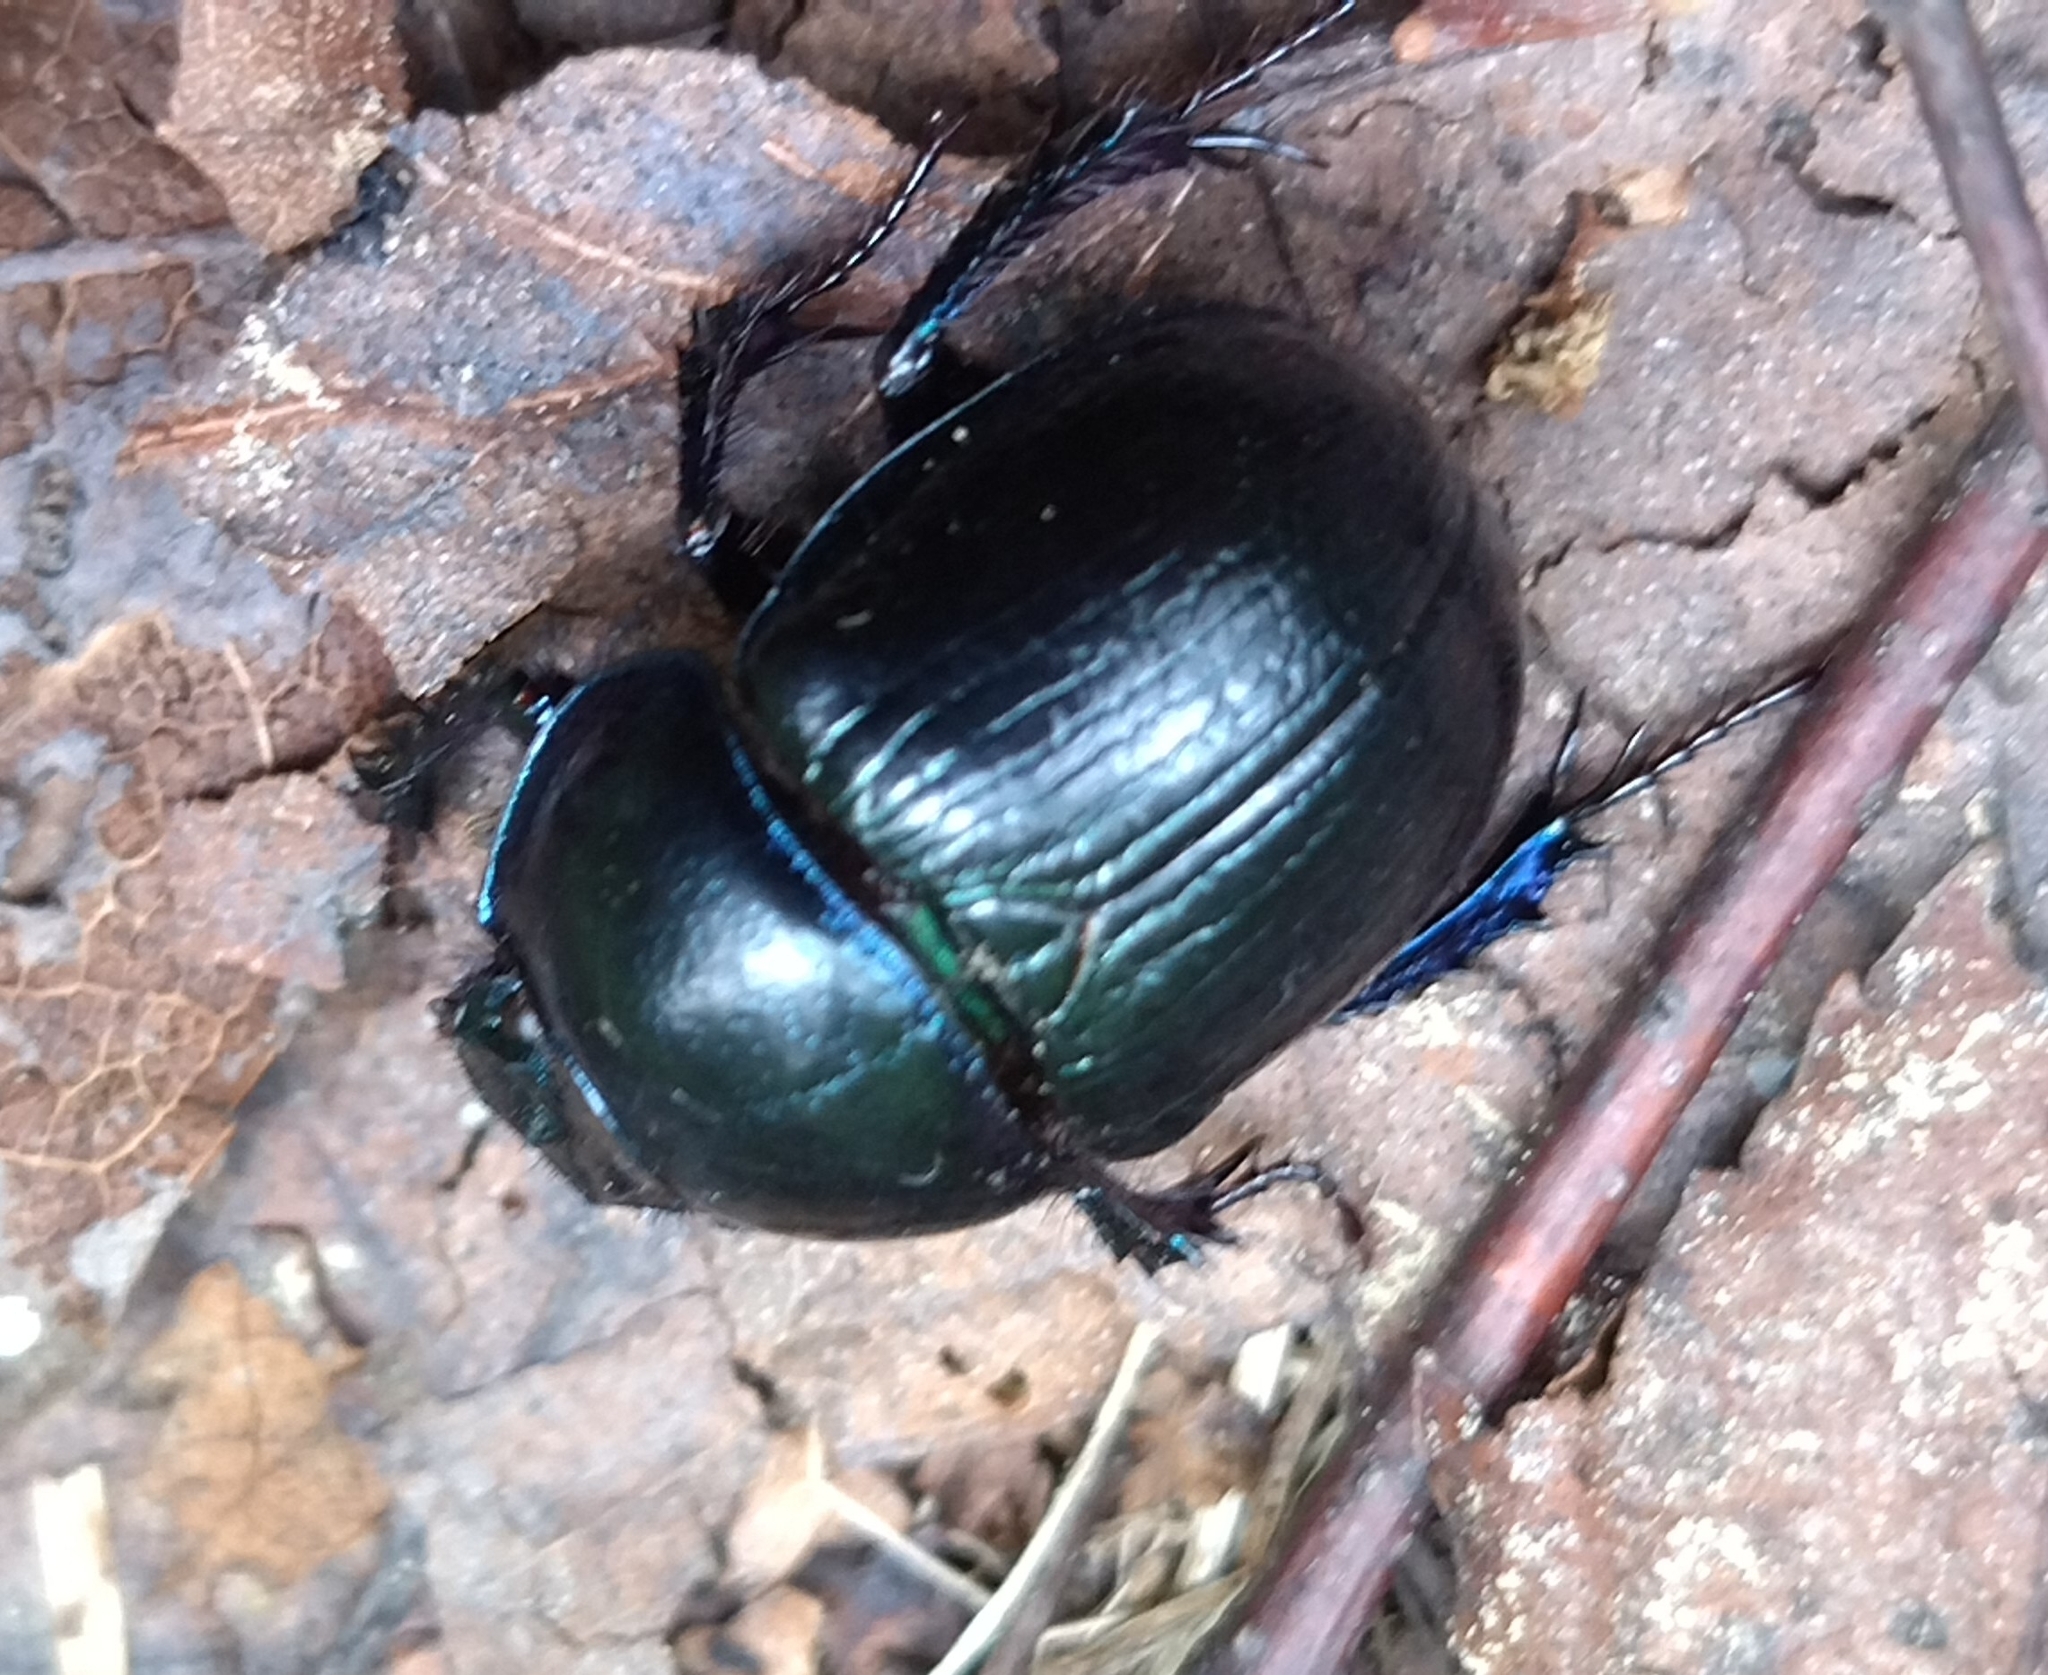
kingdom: Animalia
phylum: Arthropoda
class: Insecta
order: Coleoptera
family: Geotrupidae
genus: Anoplotrupes
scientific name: Anoplotrupes stercorosus
